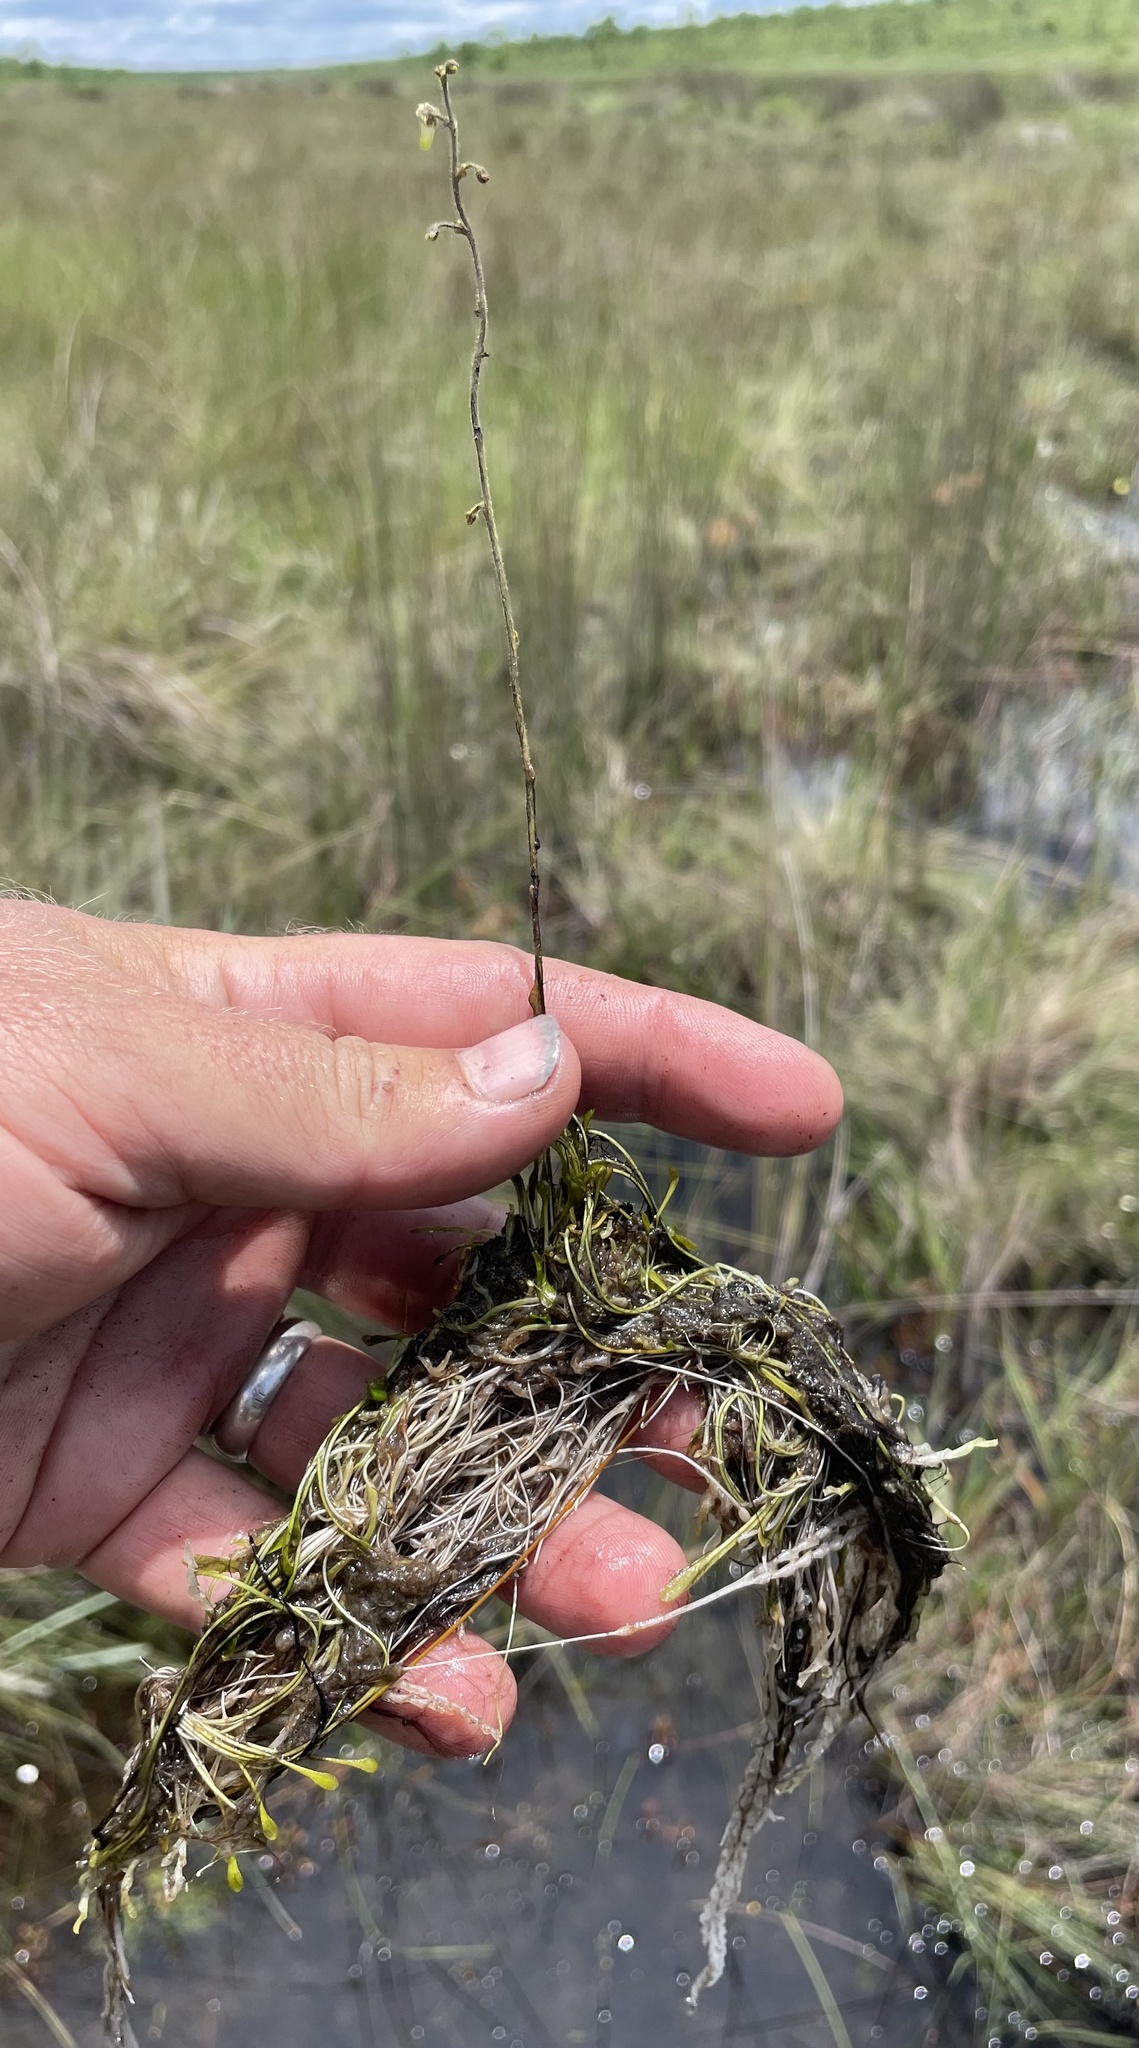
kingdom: Plantae
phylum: Tracheophyta
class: Magnoliopsida
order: Lamiales
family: Lentibulariaceae
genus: Genlisea
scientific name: Genlisea pallida
